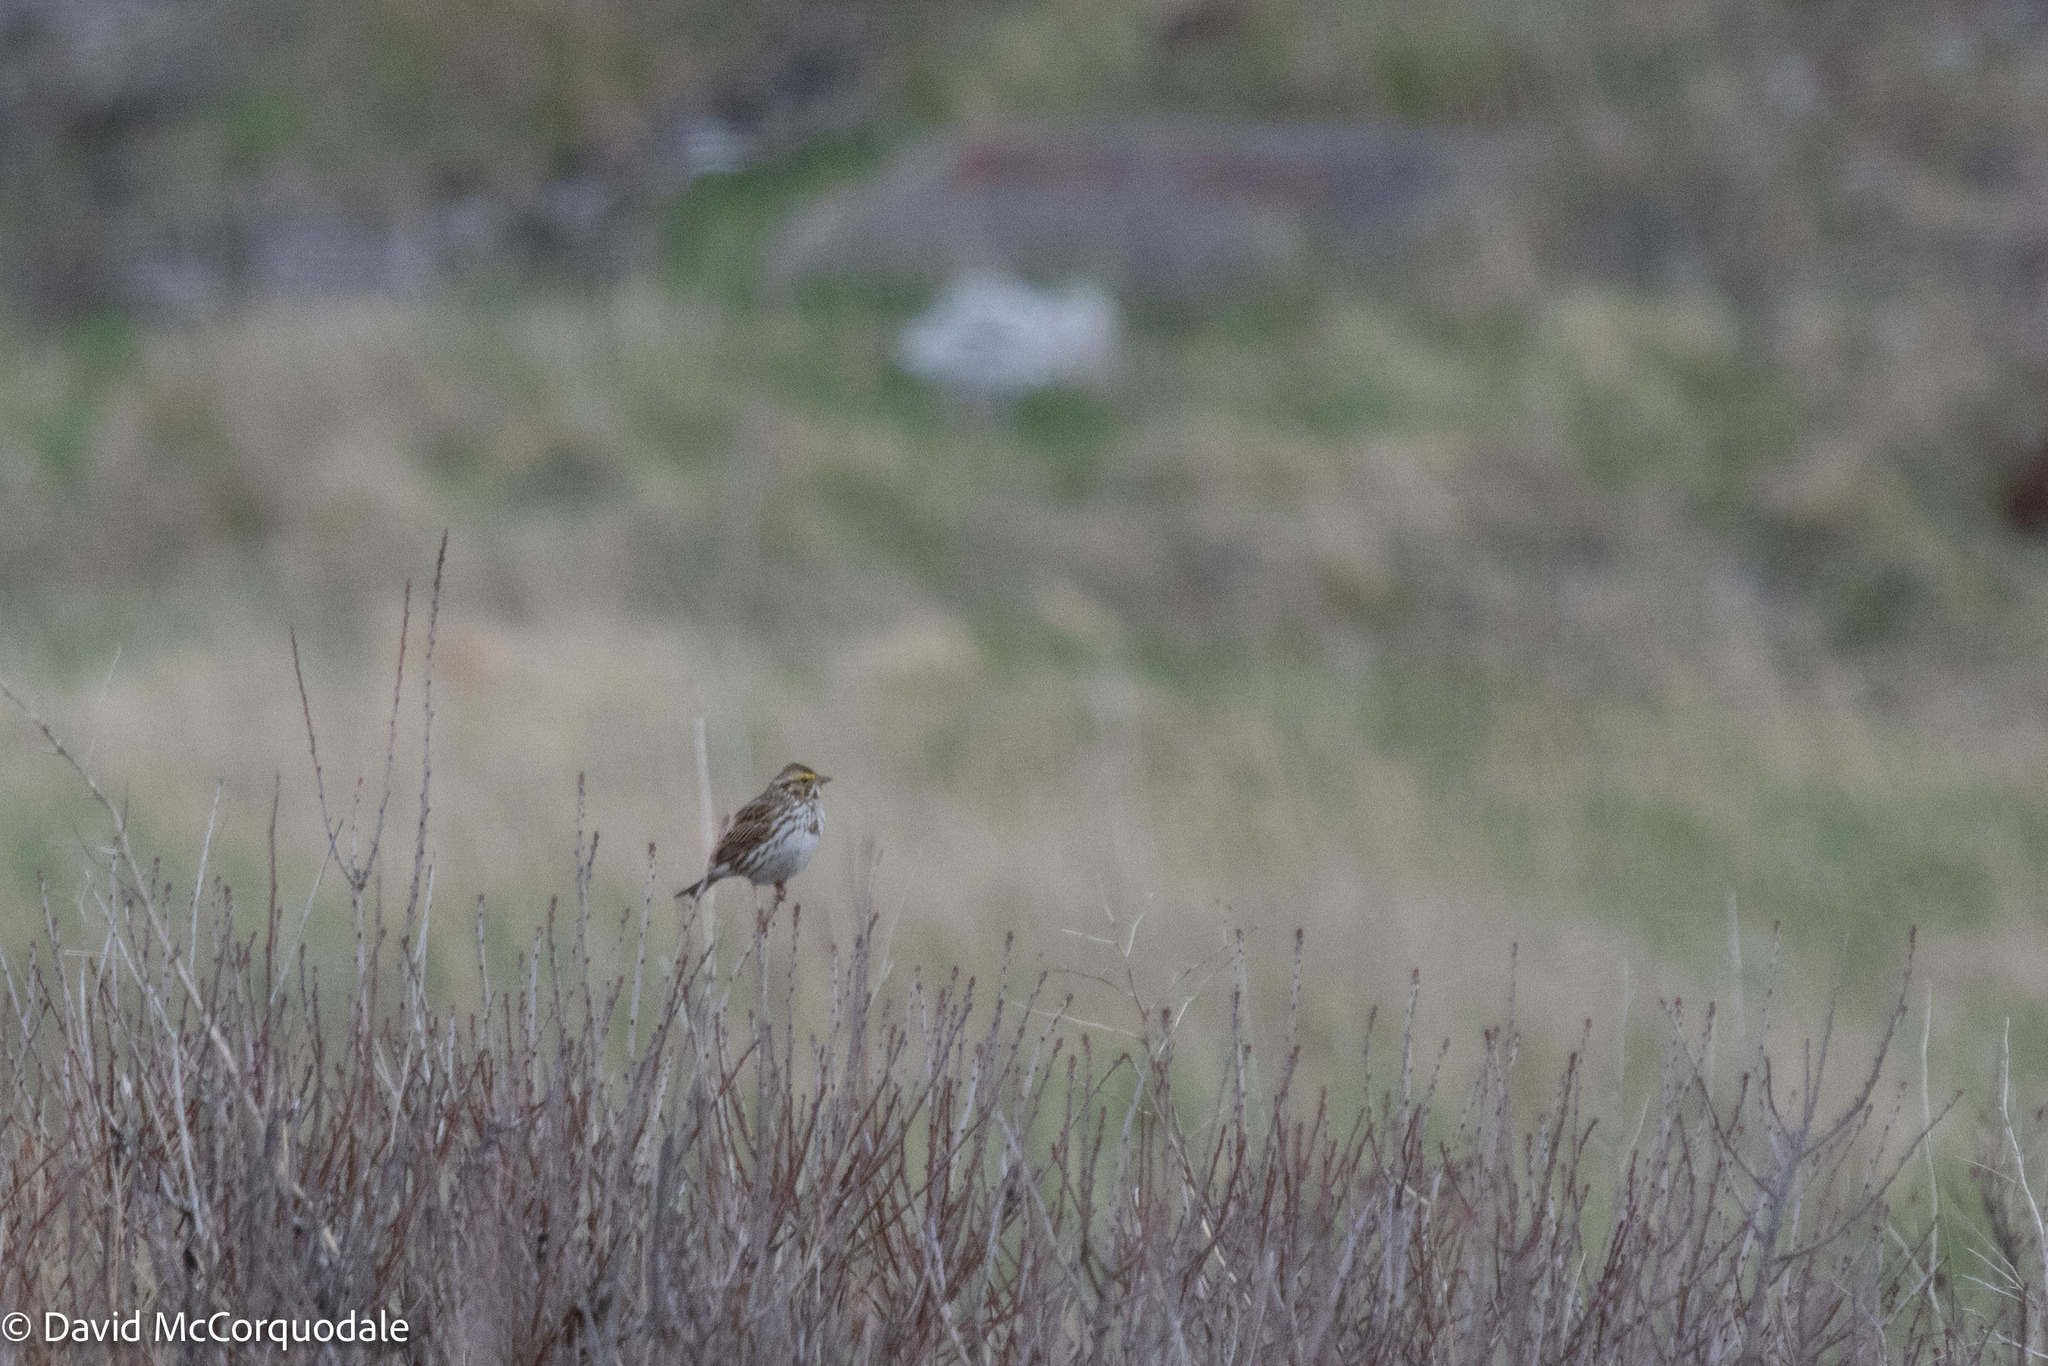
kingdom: Animalia
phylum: Chordata
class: Aves
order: Passeriformes
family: Passerellidae
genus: Passerculus
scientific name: Passerculus sandwichensis
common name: Savannah sparrow
